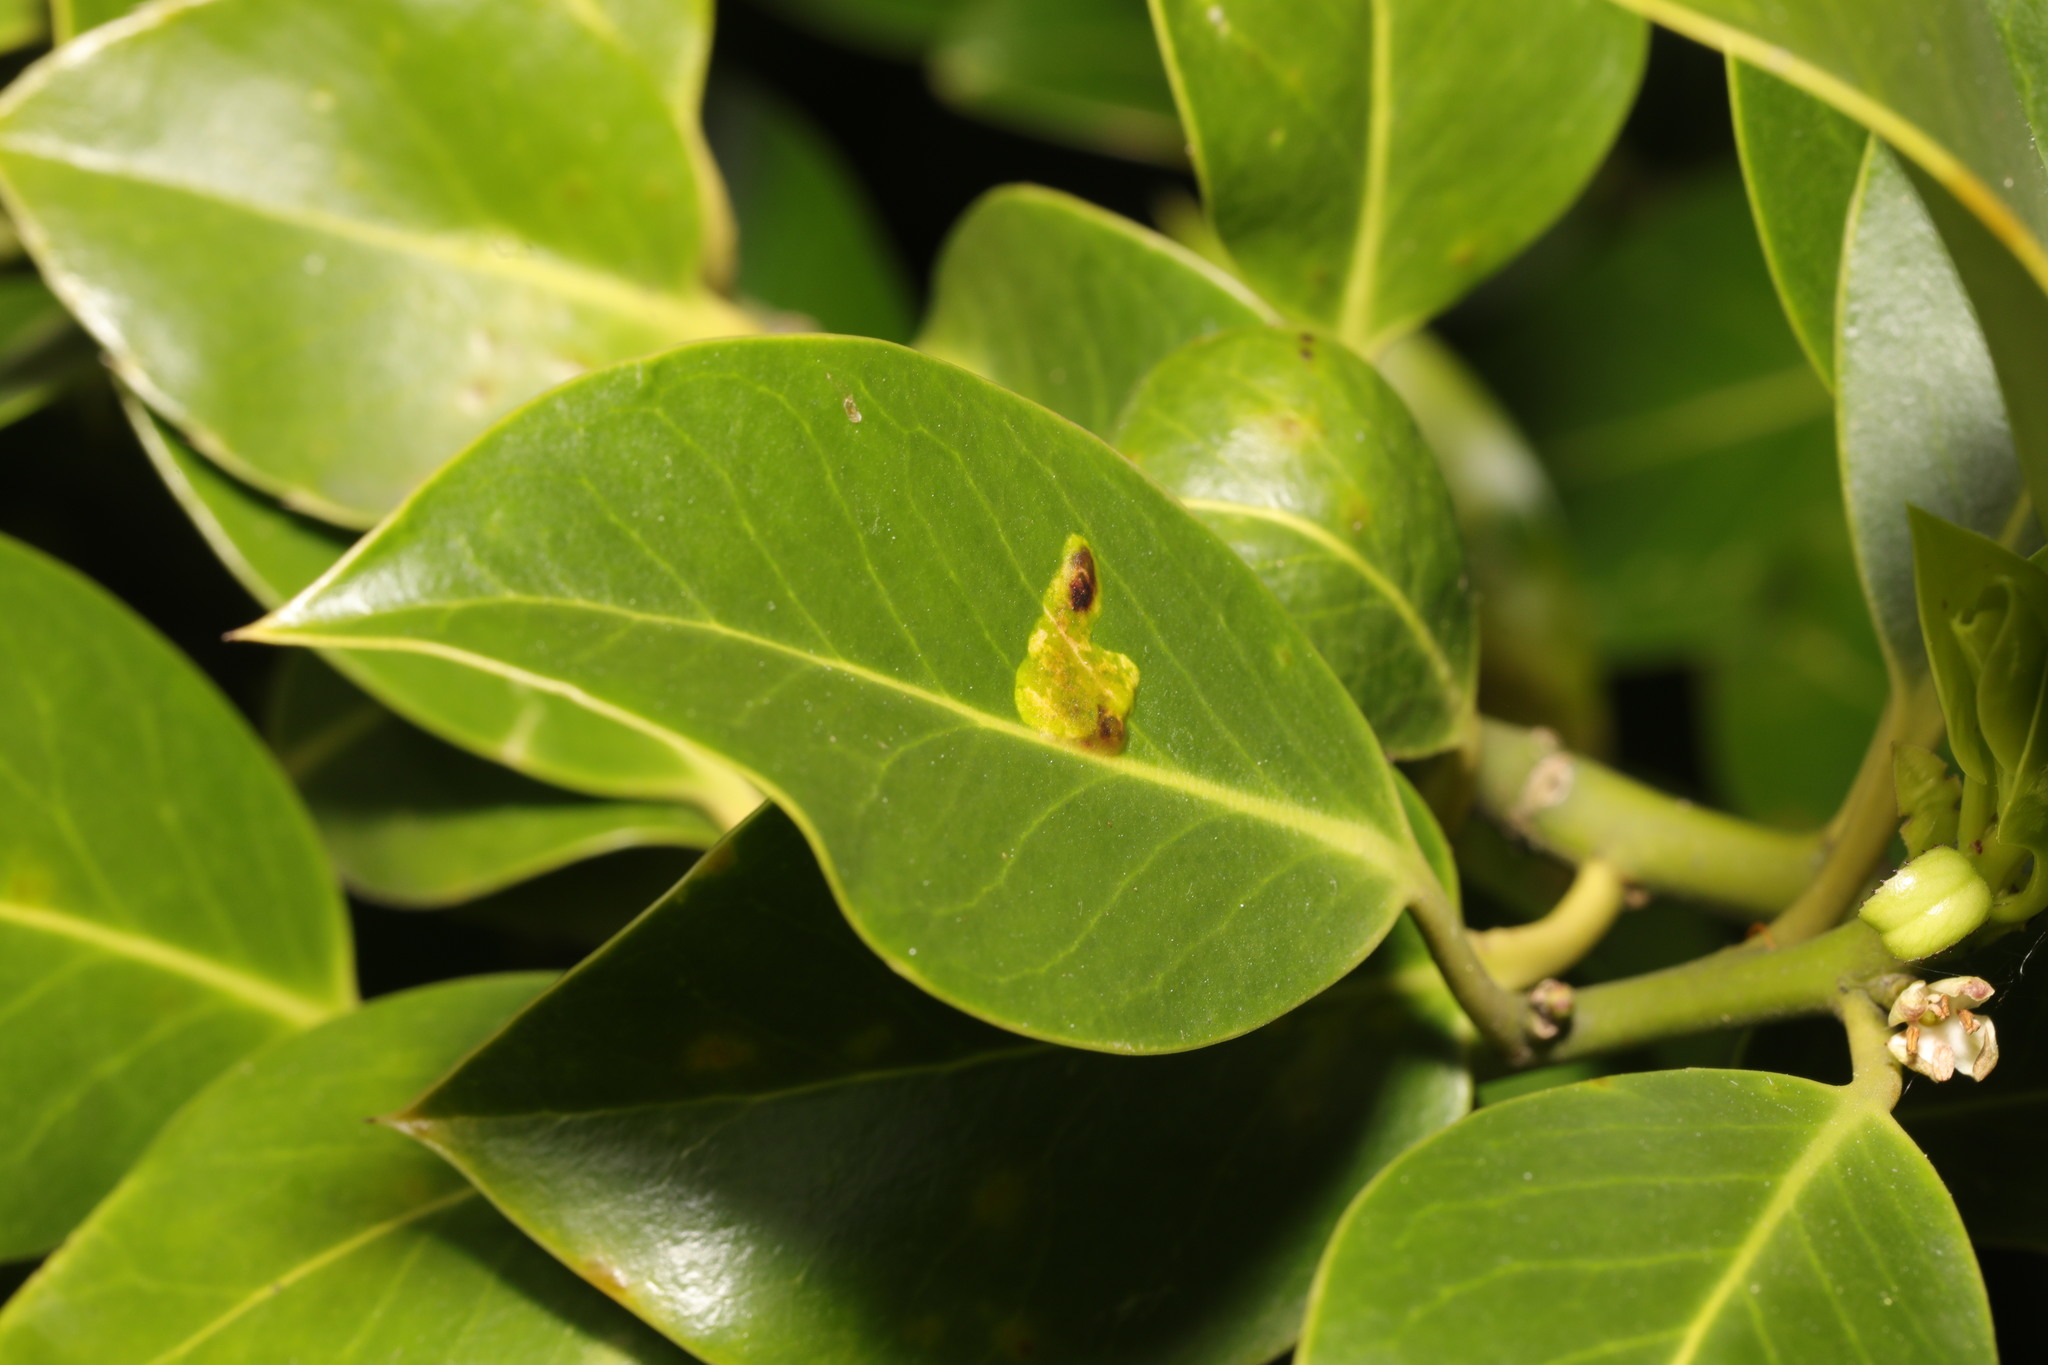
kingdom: Animalia
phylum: Arthropoda
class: Insecta
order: Diptera
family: Agromyzidae
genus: Phytomyza
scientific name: Phytomyza ilicis
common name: Holly leafminer
